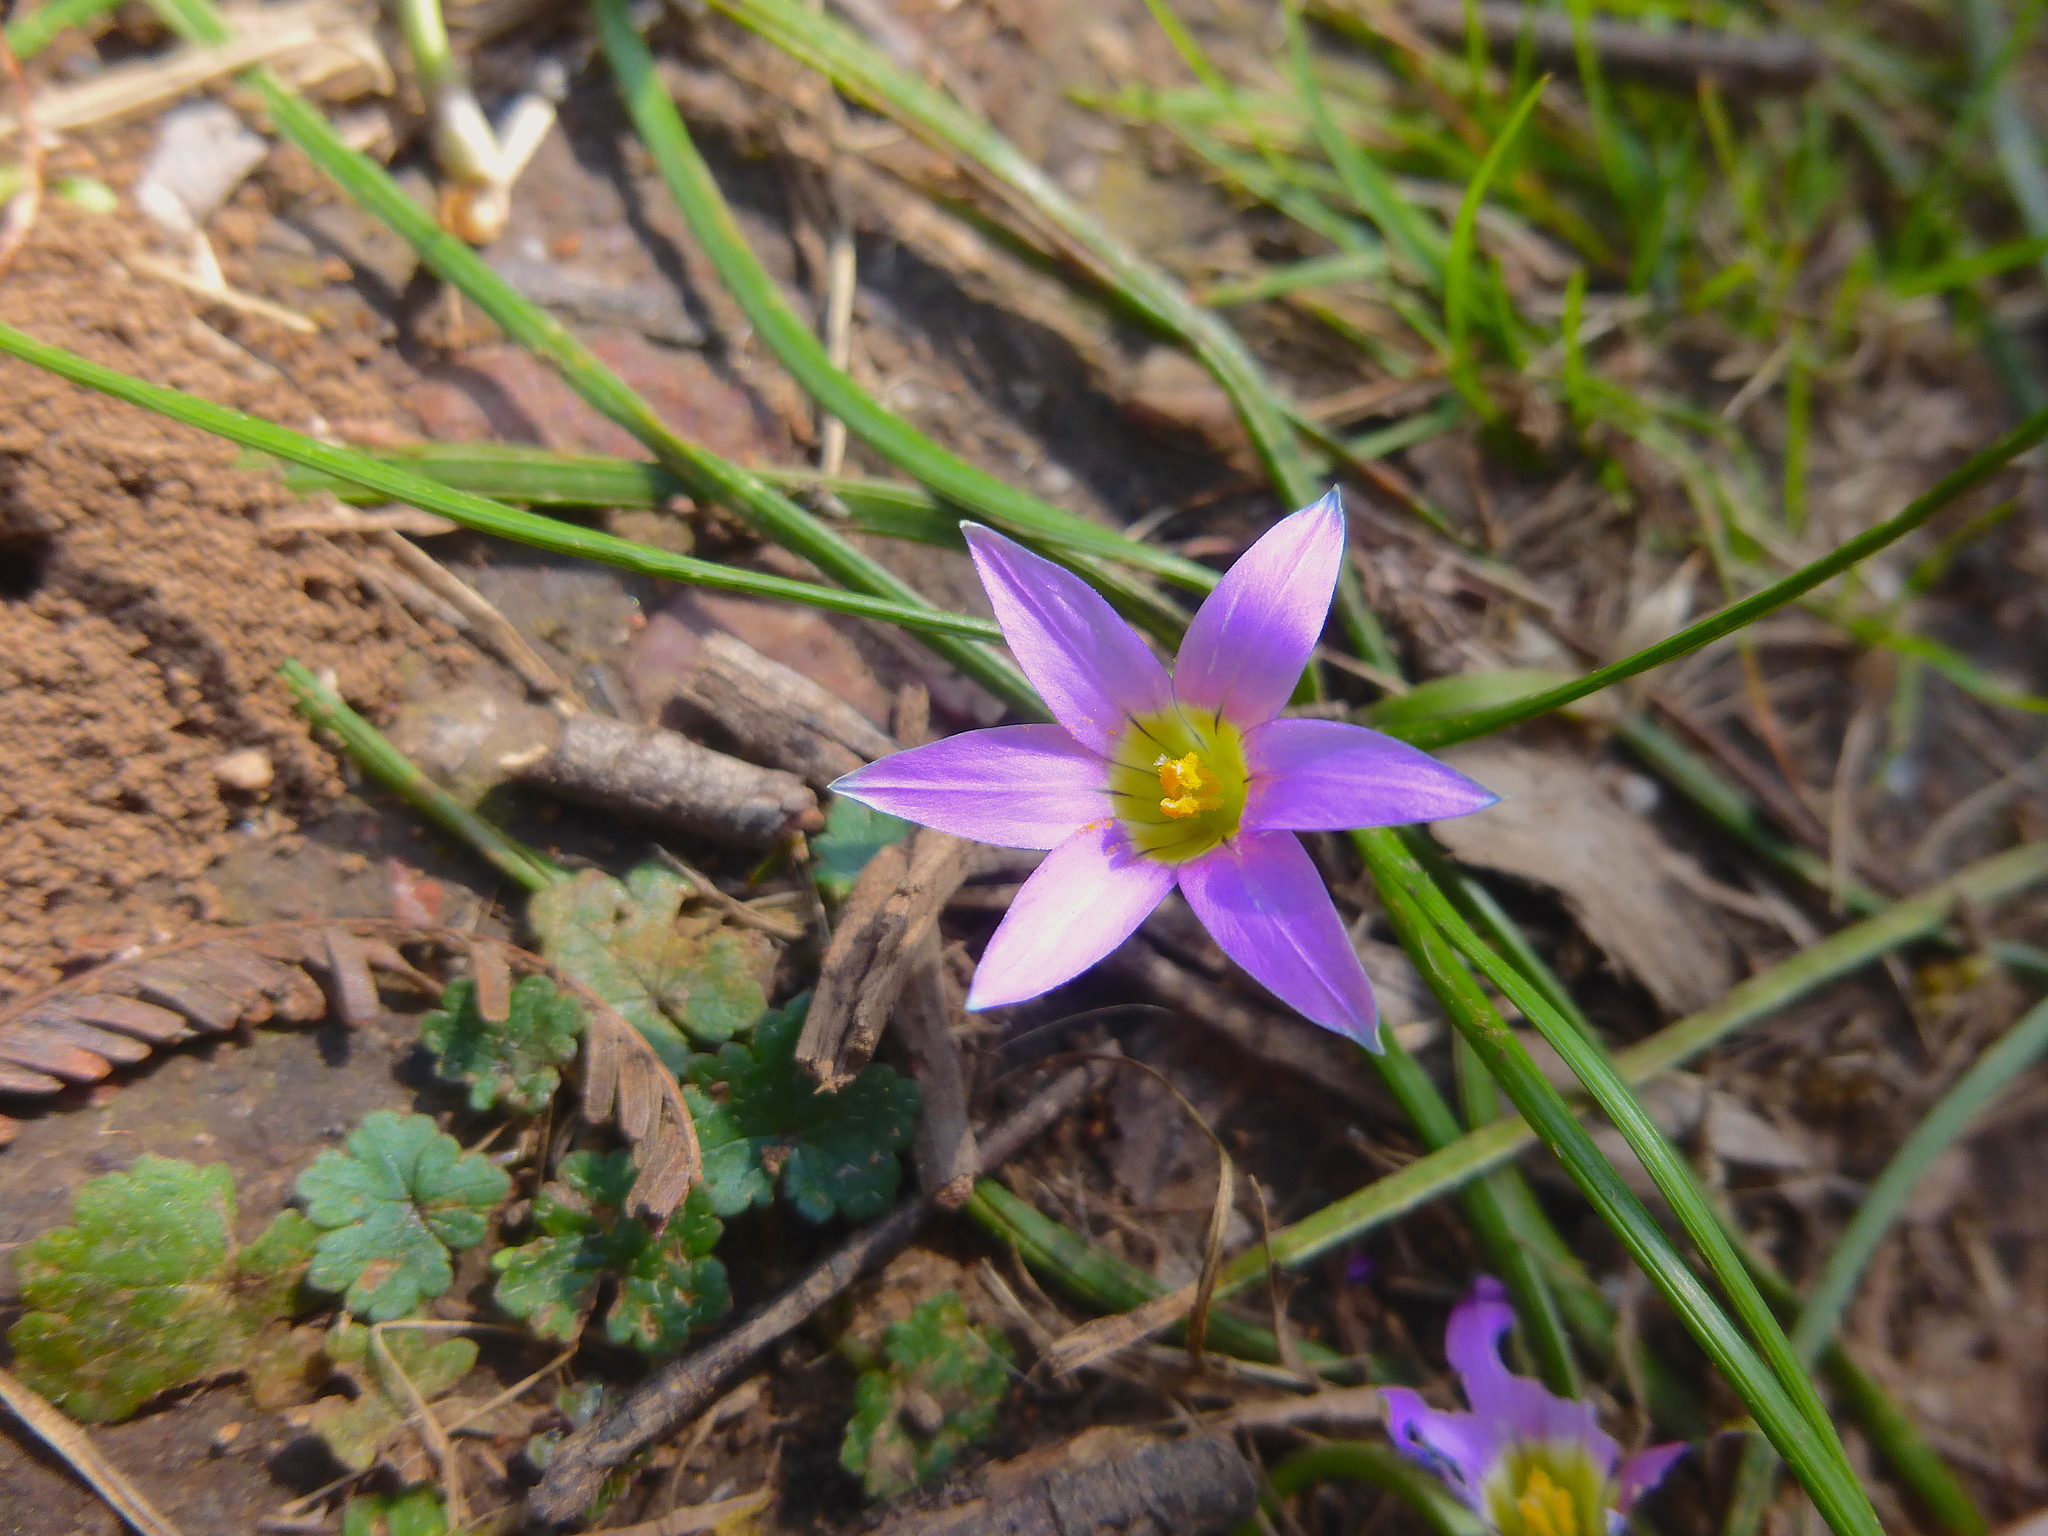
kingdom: Plantae
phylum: Tracheophyta
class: Liliopsida
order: Asparagales
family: Iridaceae
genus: Romulea
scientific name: Romulea rosea
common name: Oniongrass
